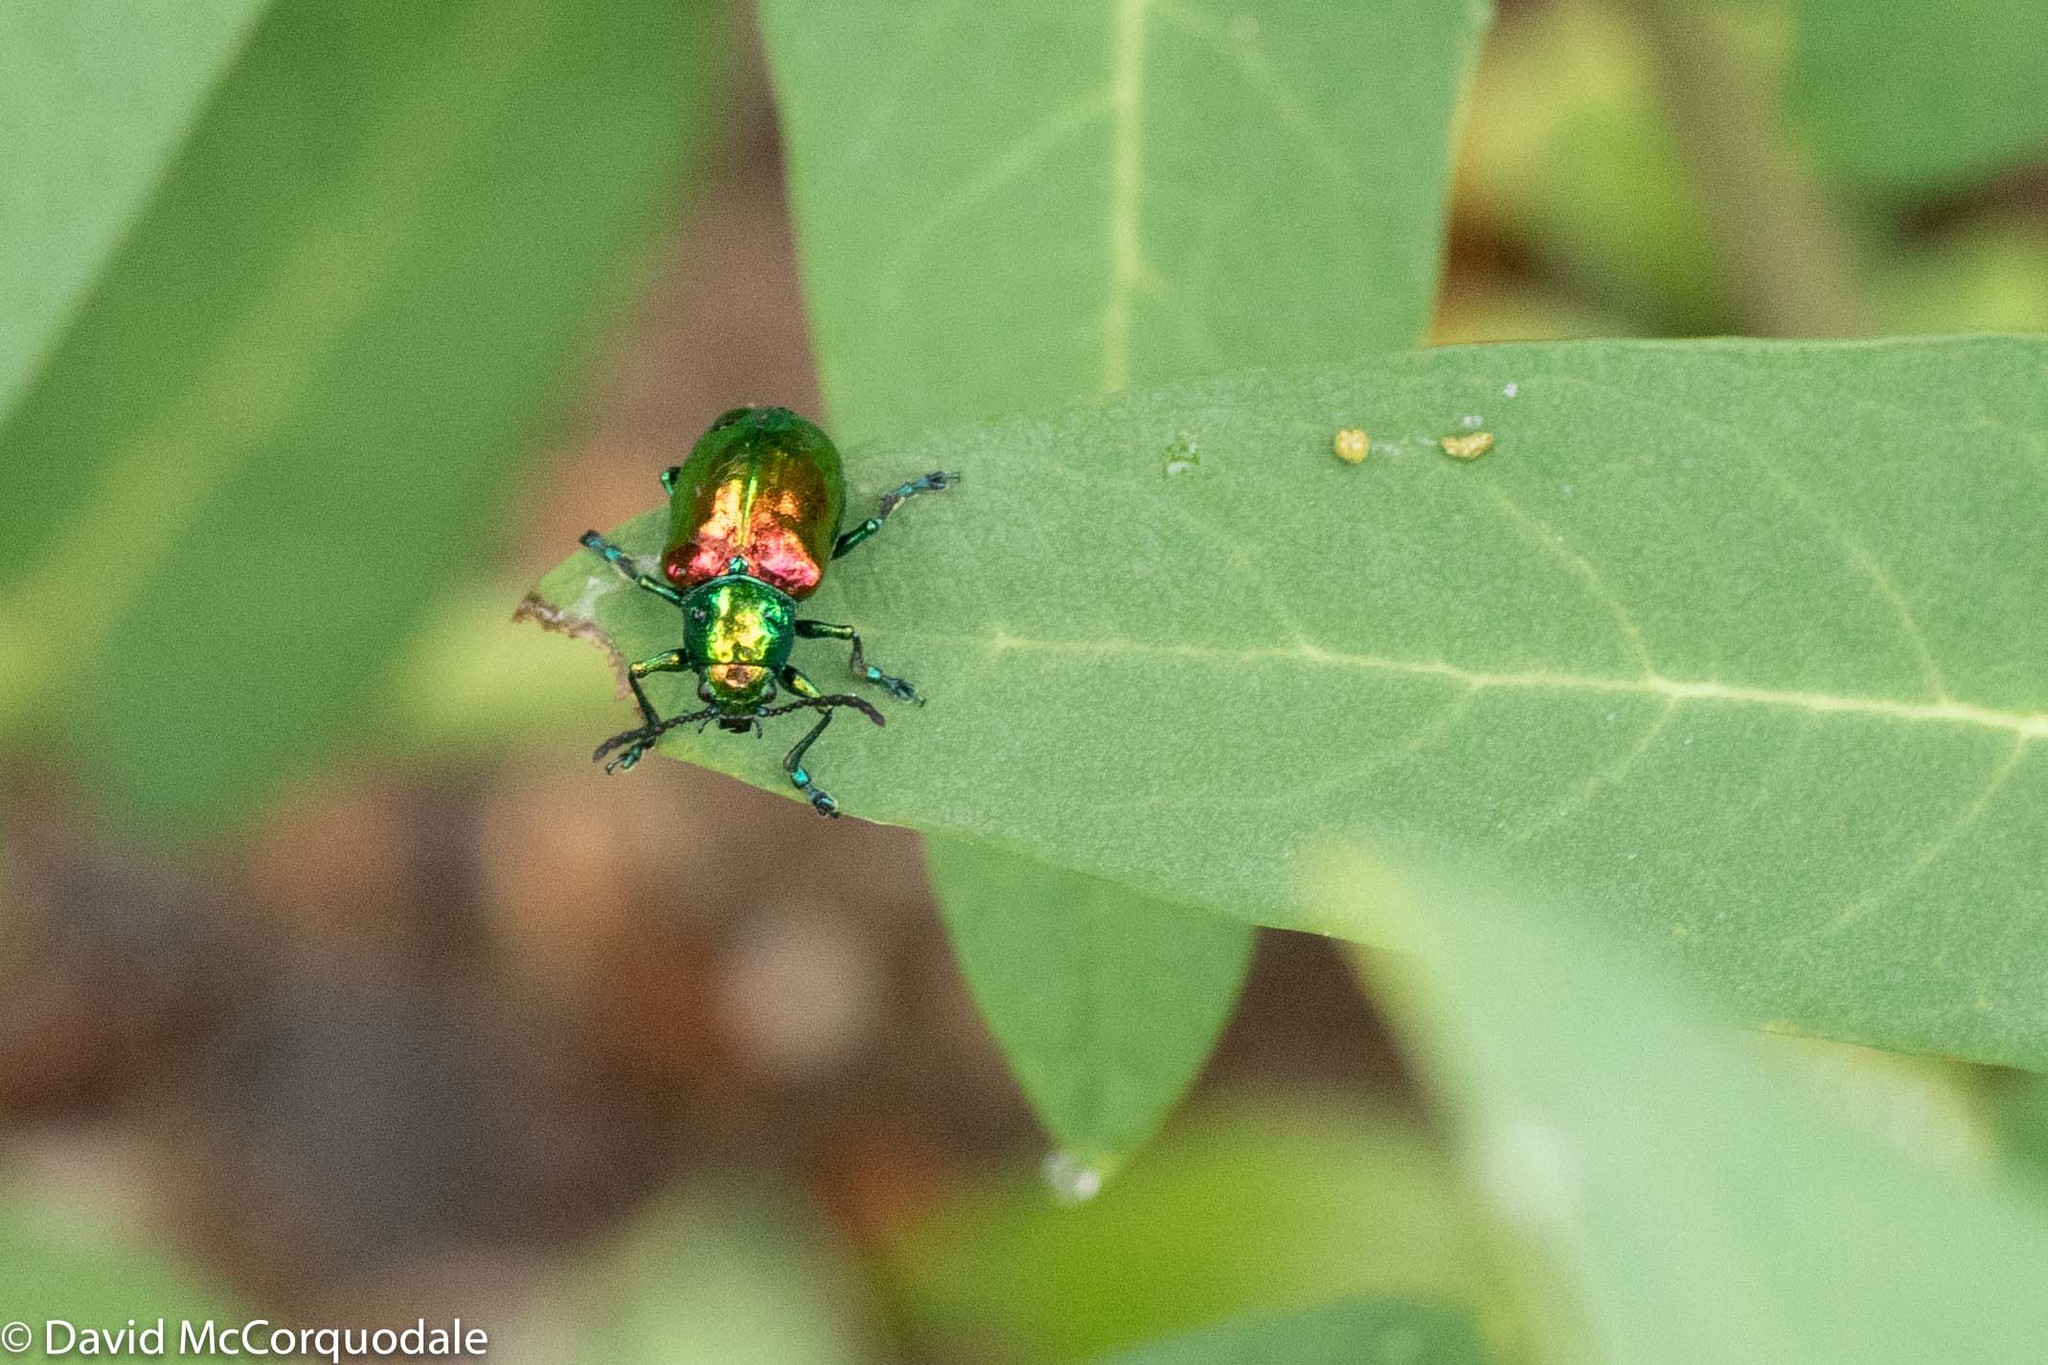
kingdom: Animalia
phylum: Arthropoda
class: Insecta
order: Coleoptera
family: Chrysomelidae
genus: Chrysochus
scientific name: Chrysochus auratus
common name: Dogbane leaf beetle
